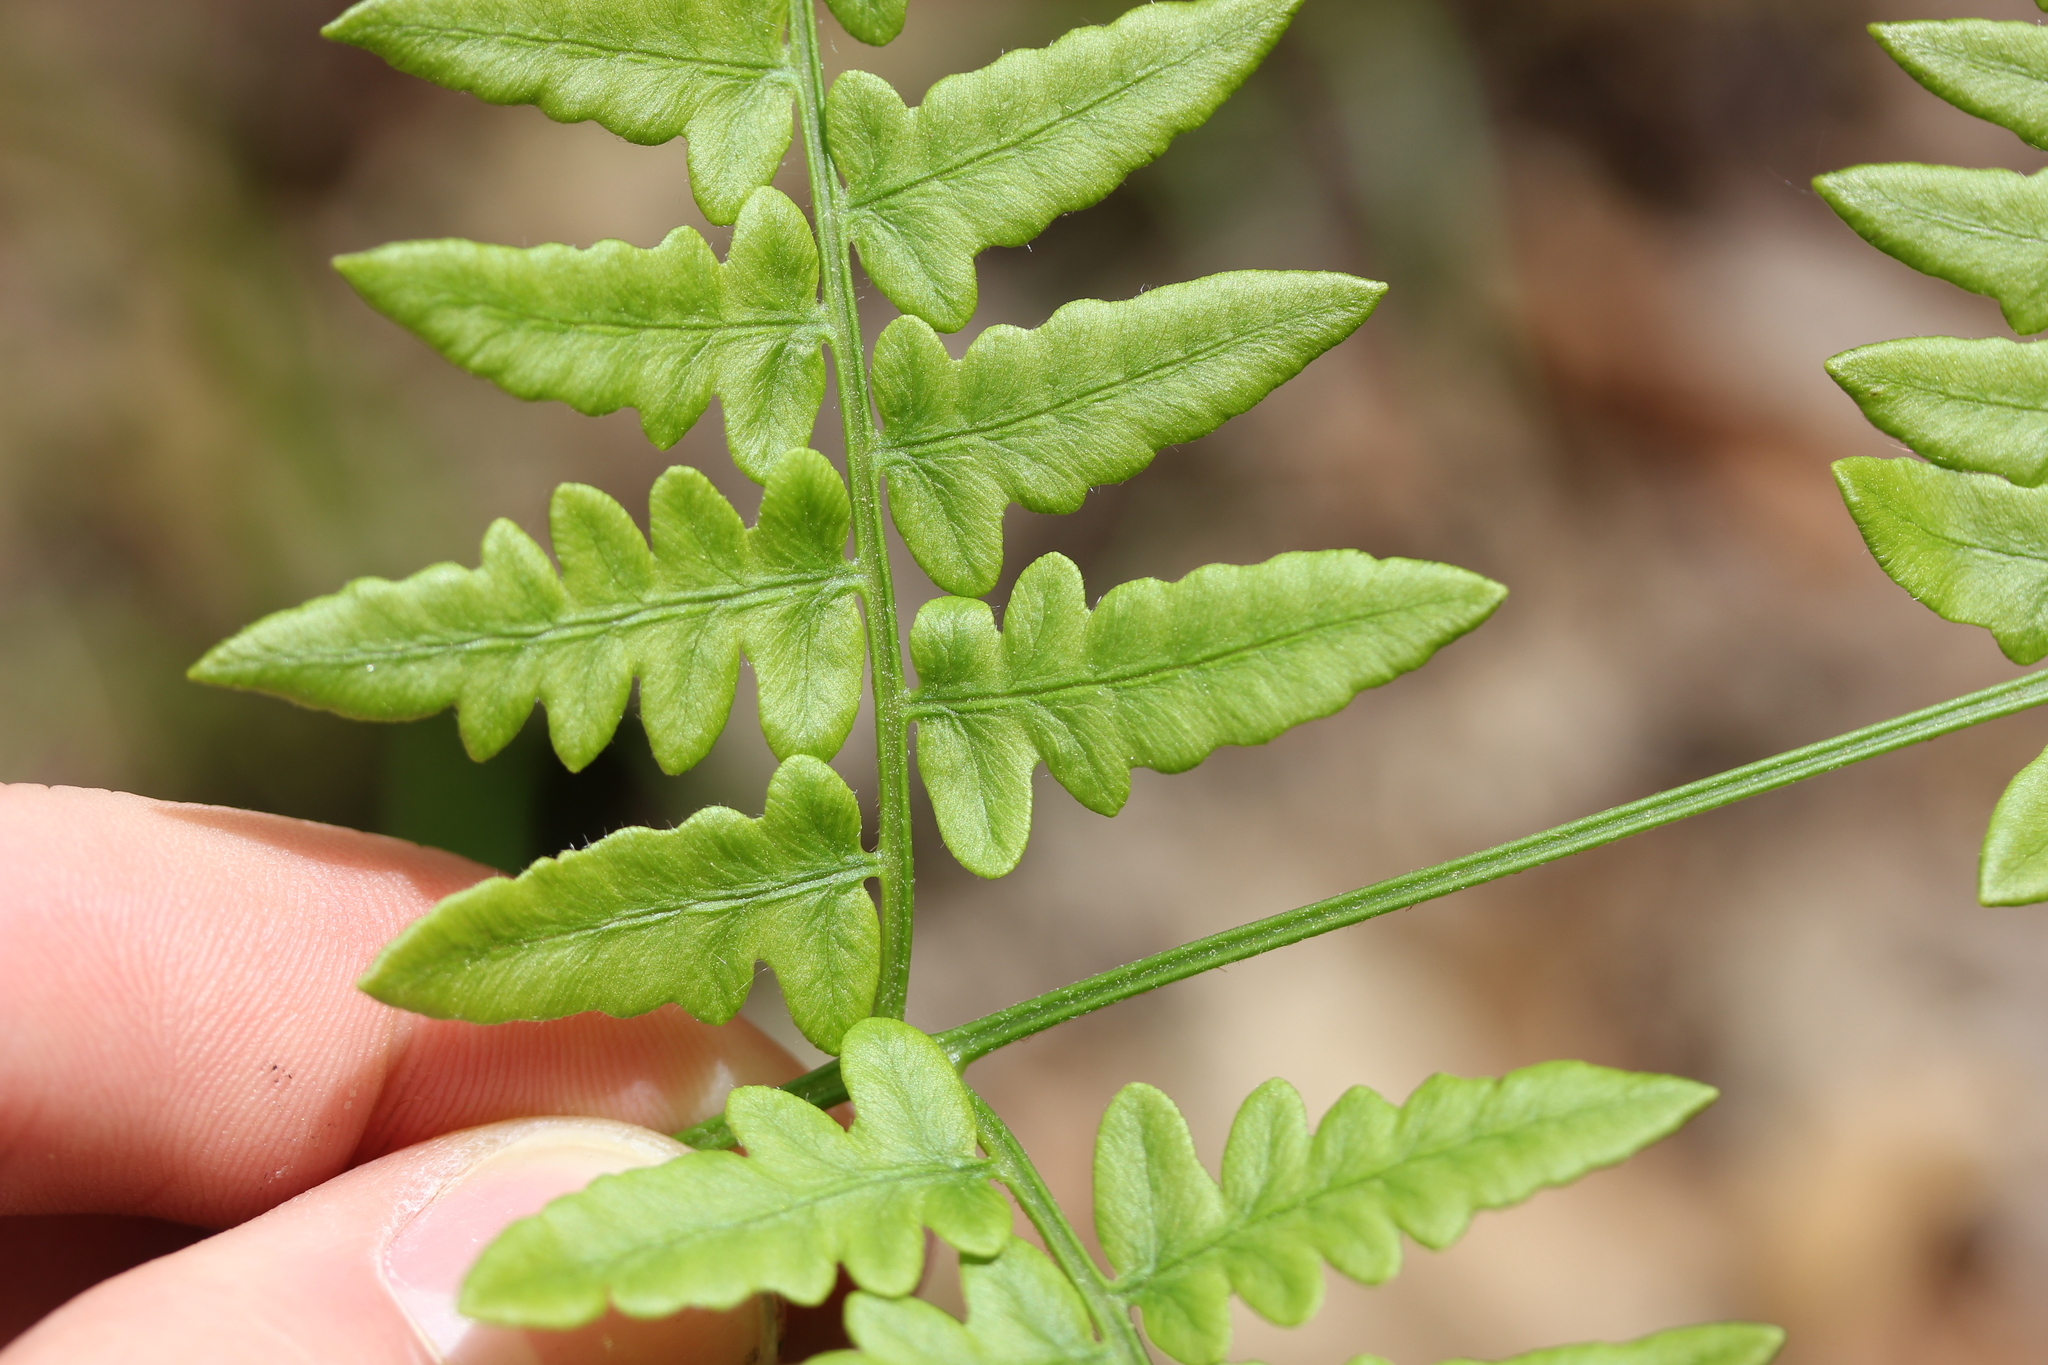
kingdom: Plantae
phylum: Tracheophyta
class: Polypodiopsida
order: Polypodiales
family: Dennstaedtiaceae
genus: Pteridium
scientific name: Pteridium aquilinum
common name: Bracken
